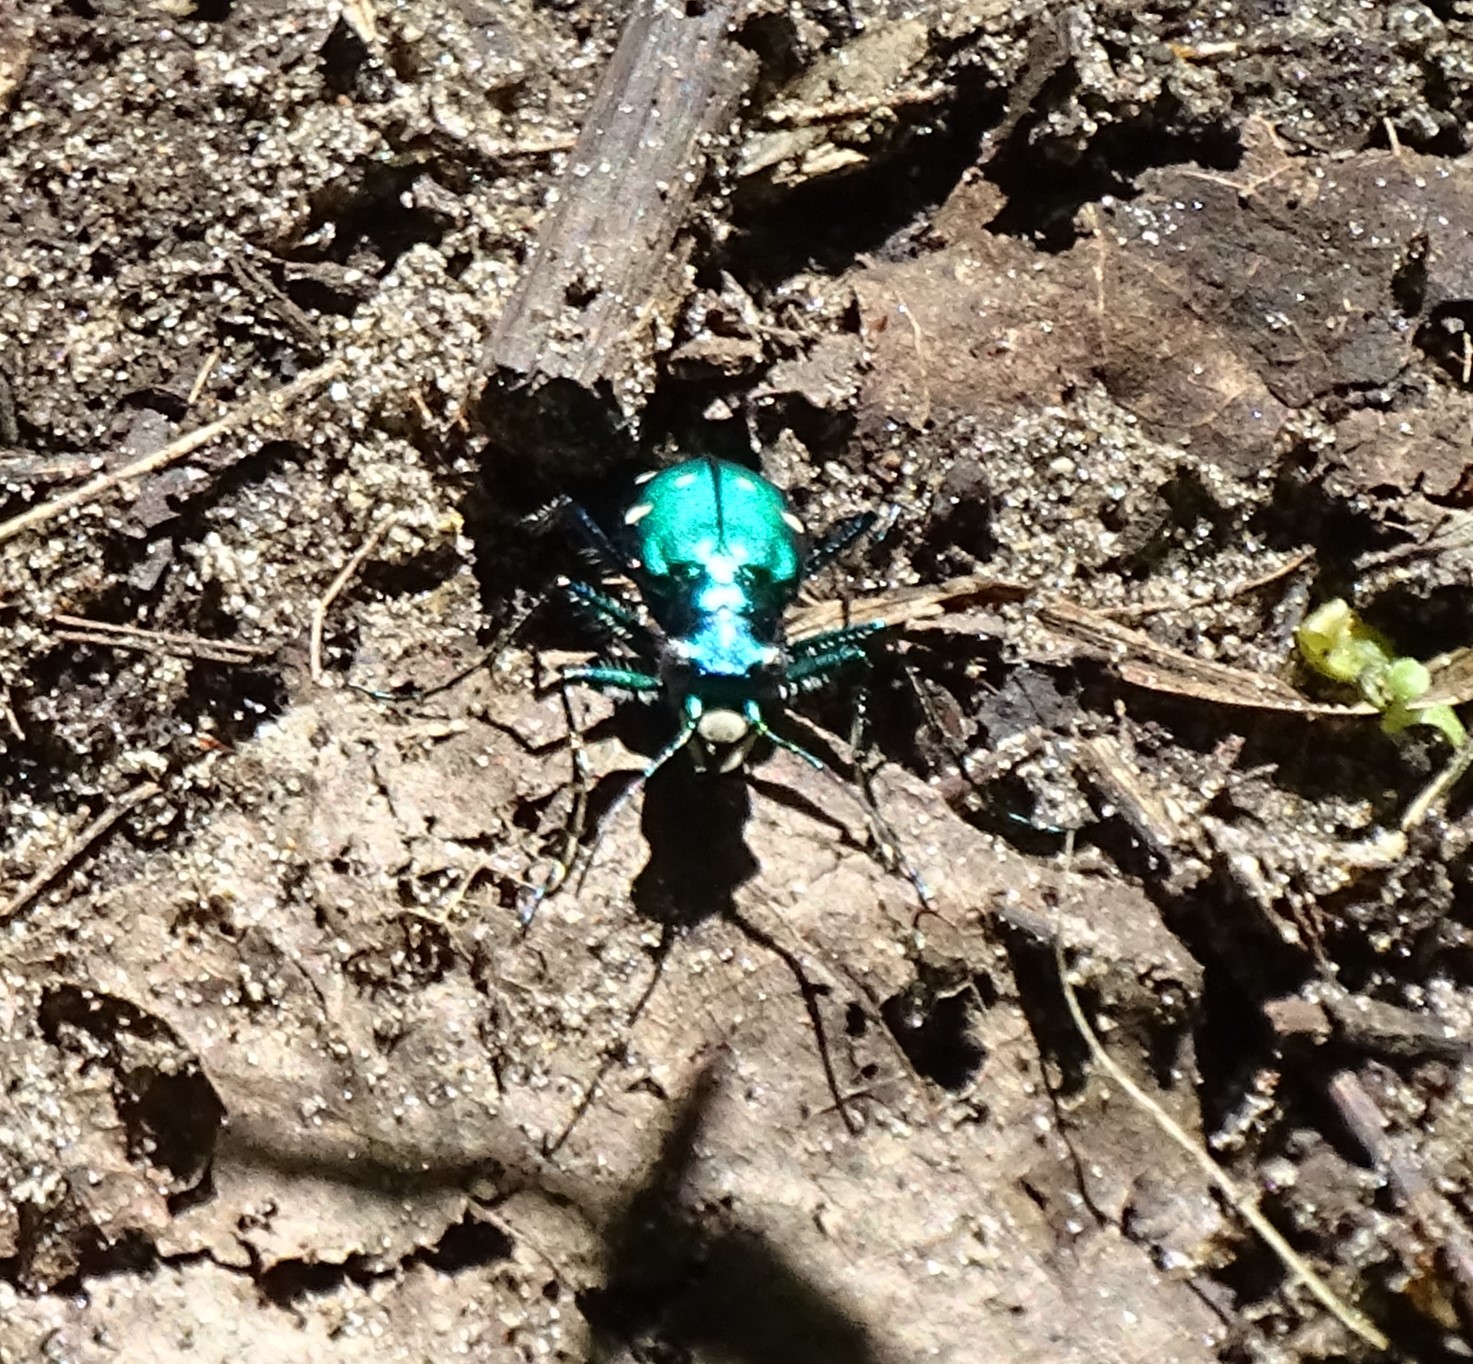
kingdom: Animalia
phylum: Arthropoda
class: Insecta
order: Coleoptera
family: Carabidae
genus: Cicindela
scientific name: Cicindela sexguttata
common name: Six-spotted tiger beetle
